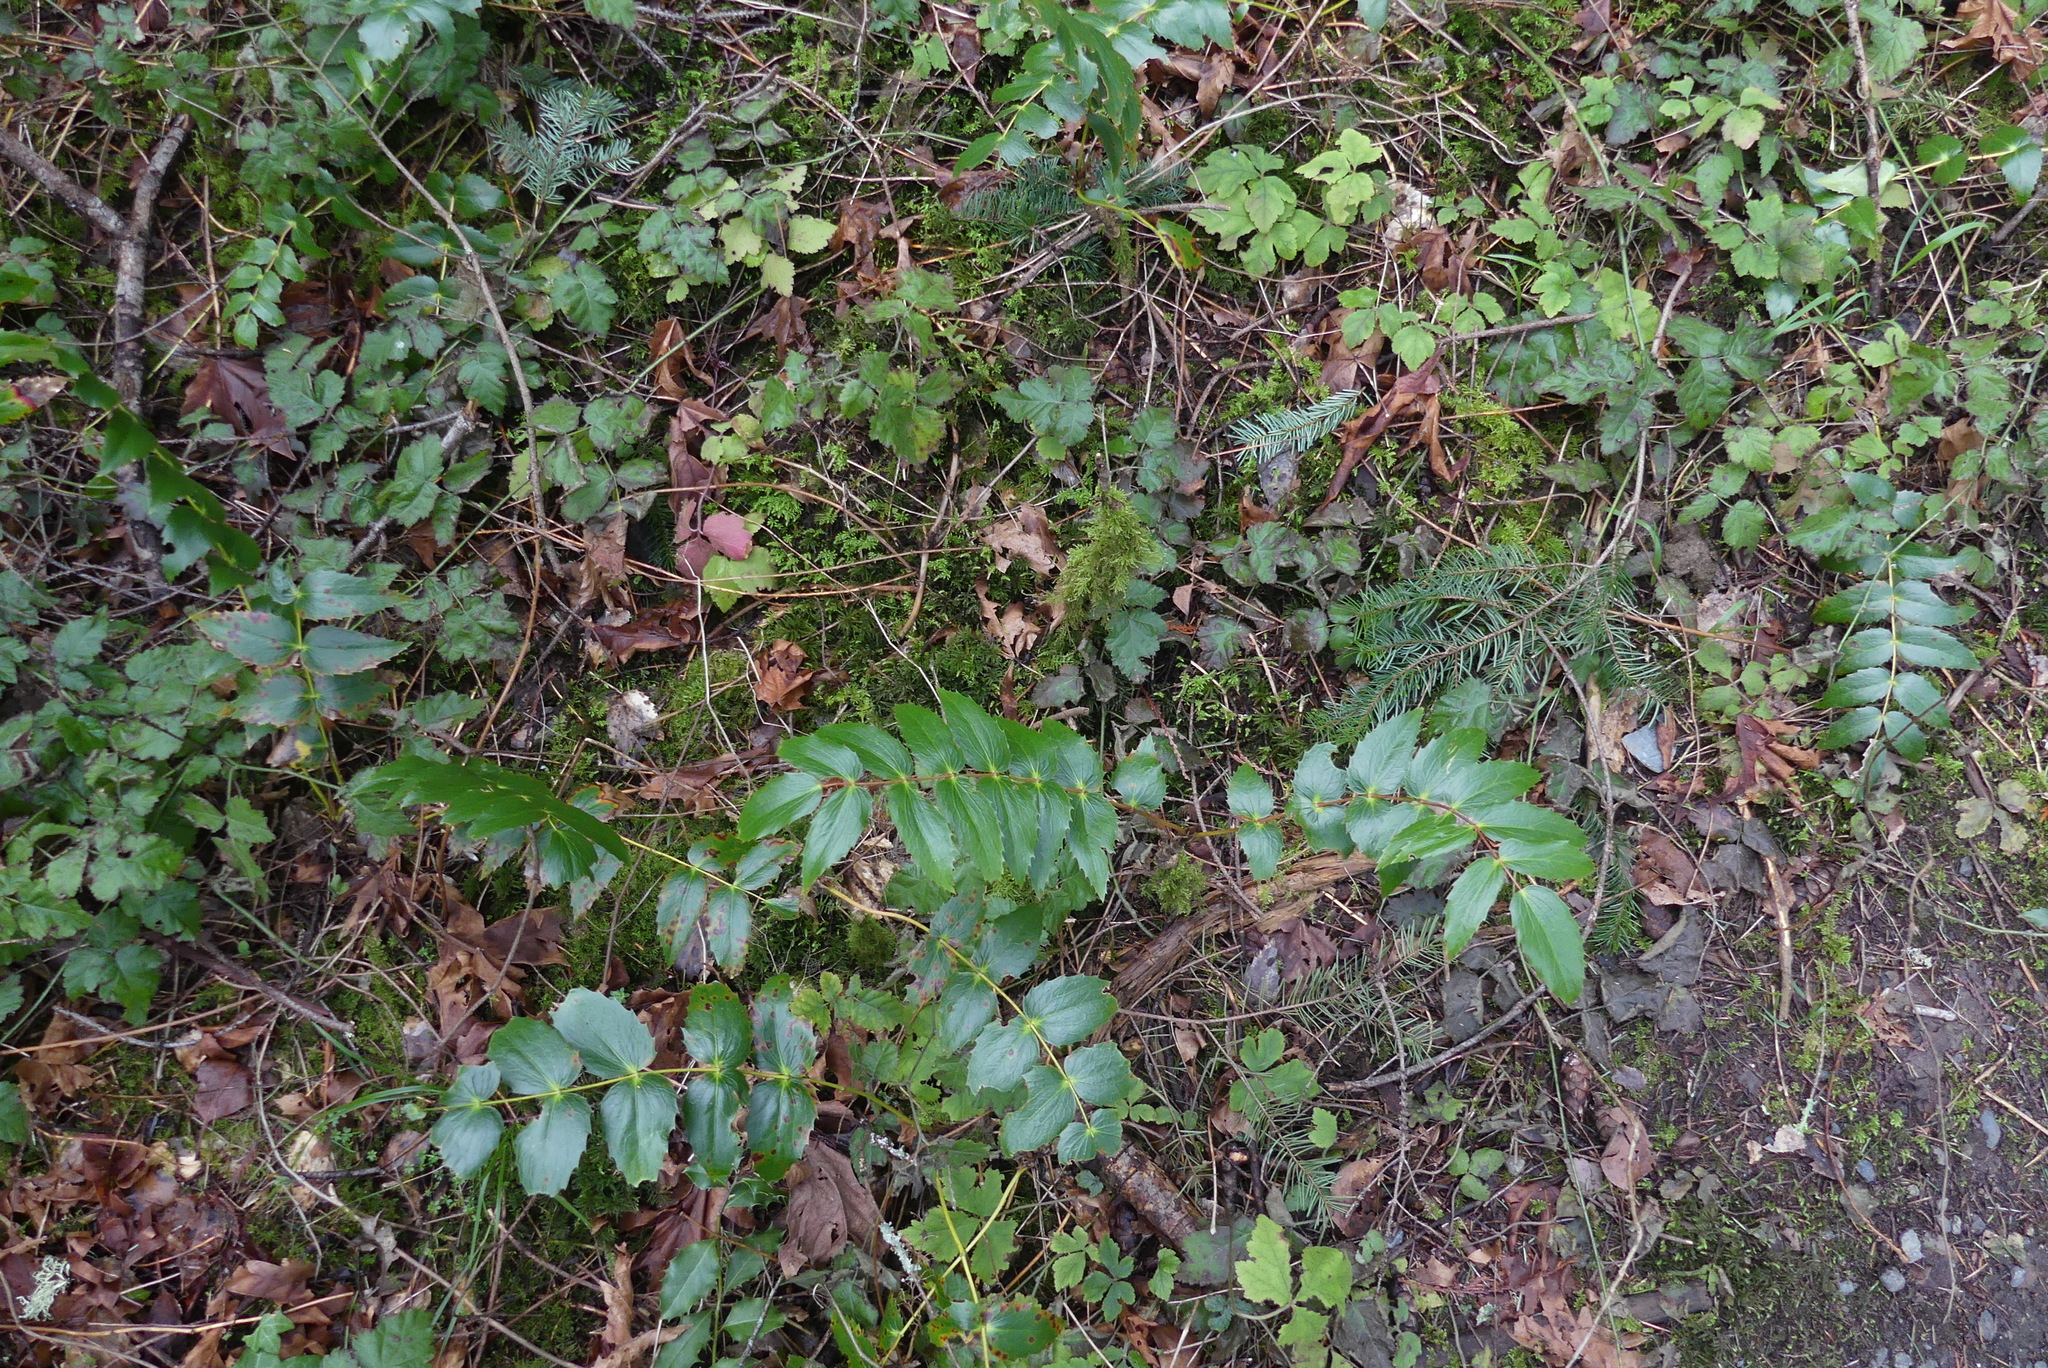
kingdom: Plantae
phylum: Tracheophyta
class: Magnoliopsida
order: Ranunculales
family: Berberidaceae
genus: Mahonia
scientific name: Mahonia nervosa
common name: Cascade oregon-grape
